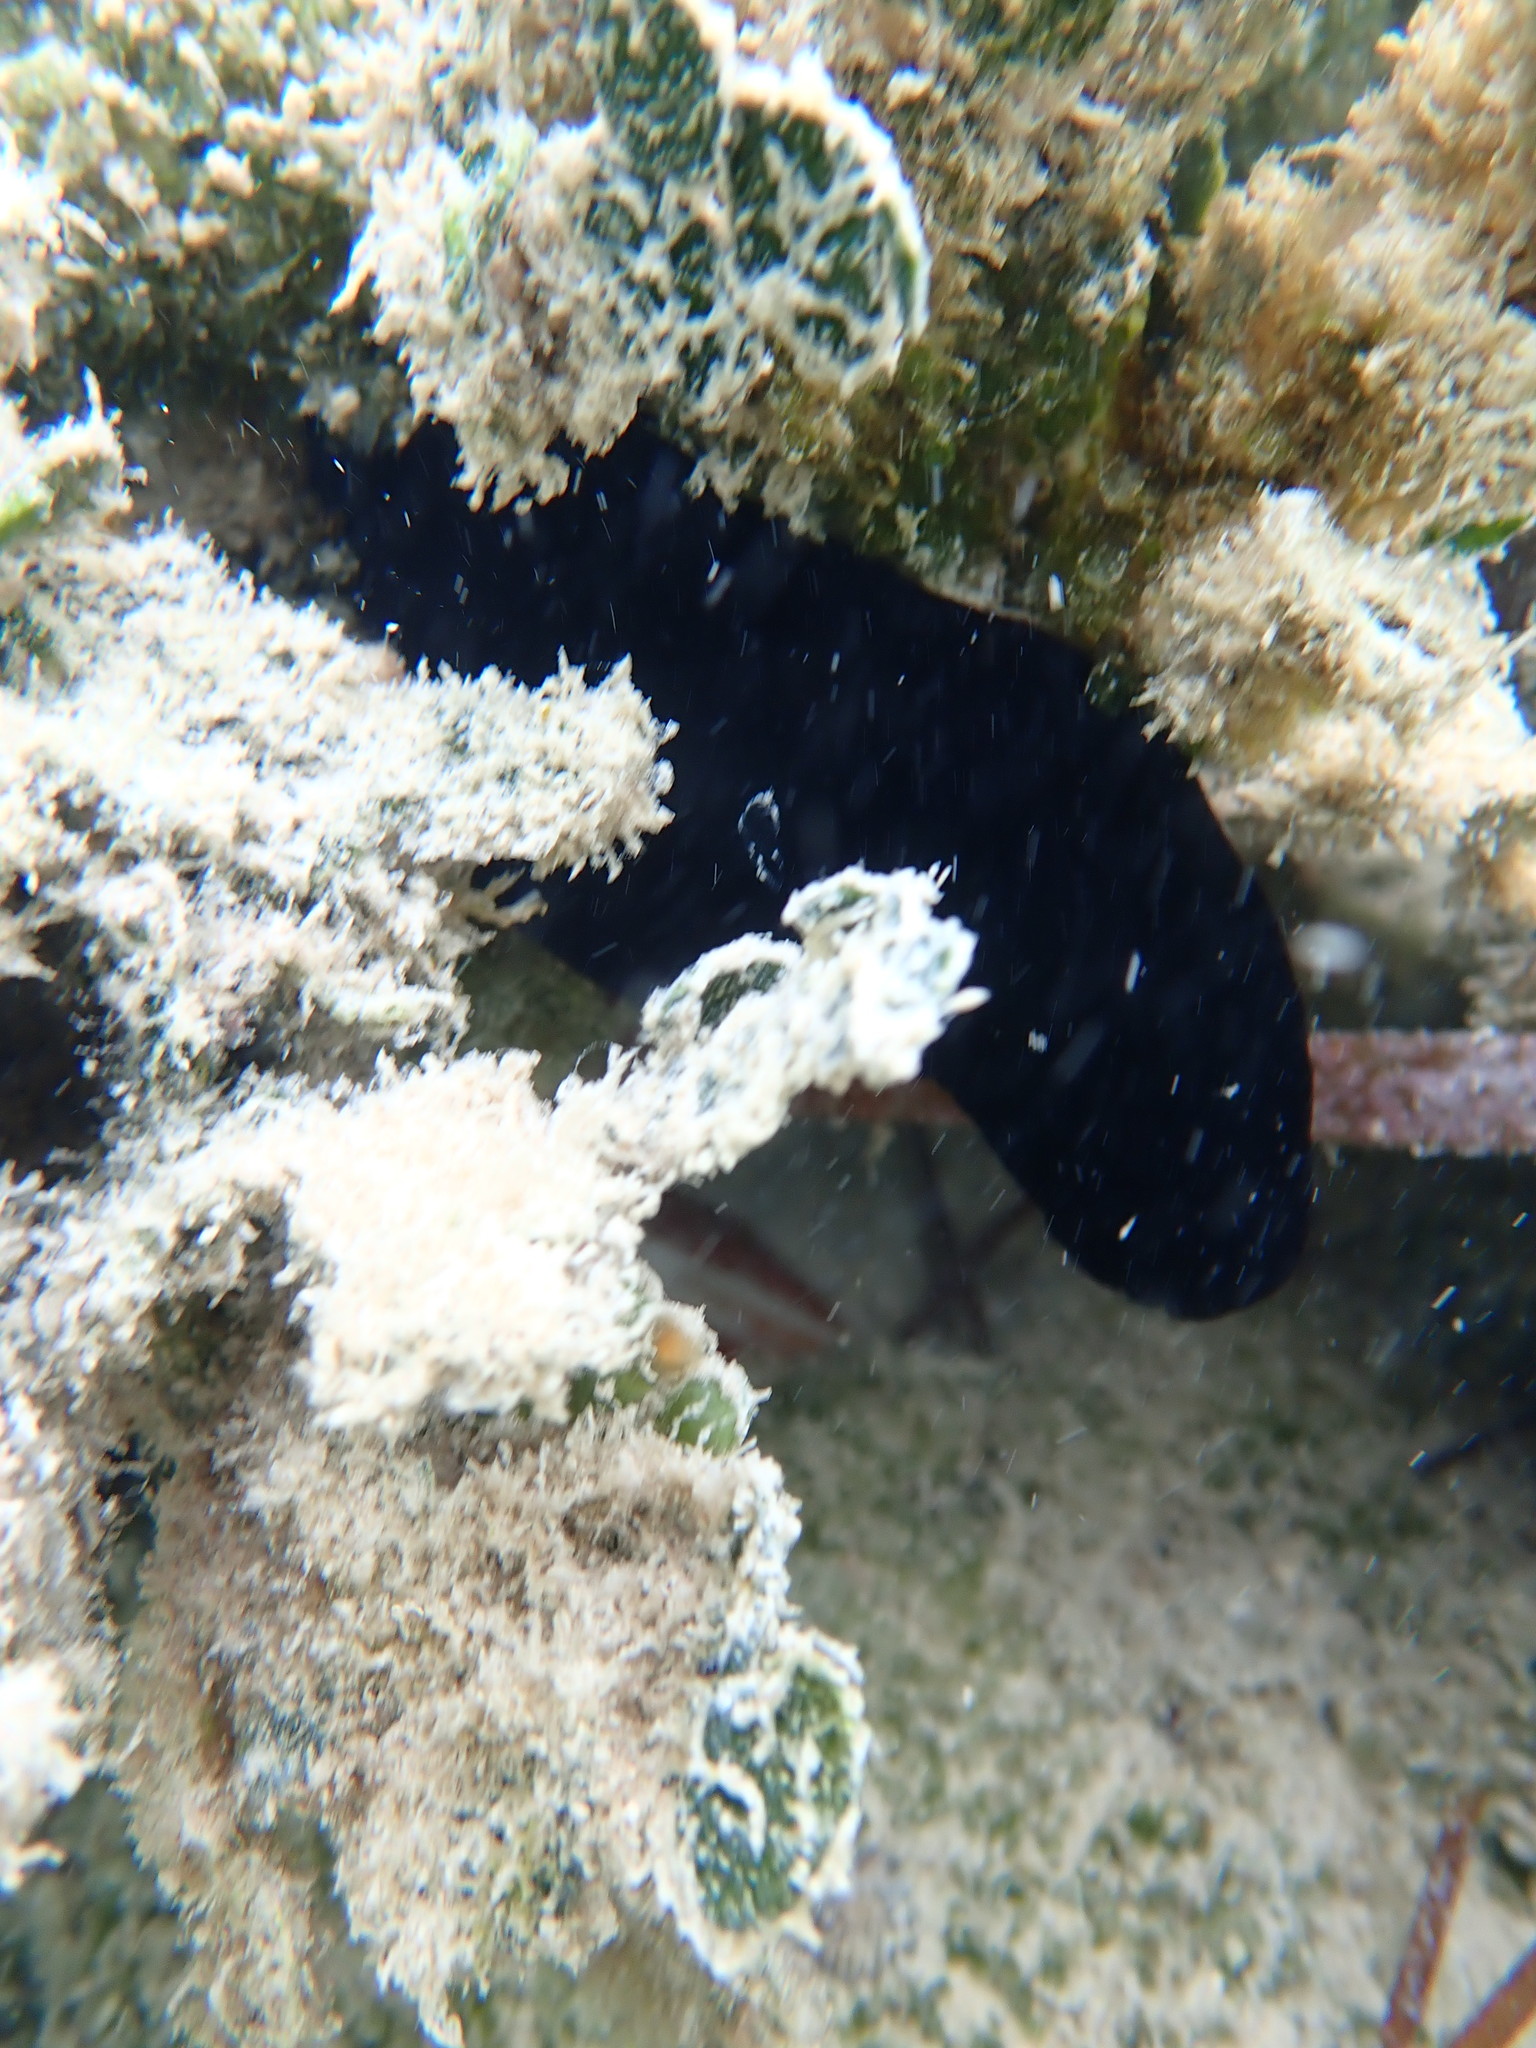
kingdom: Animalia
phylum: Chordata
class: Ascidiacea
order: Phlebobranchia
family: Ascidiidae
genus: Phallusia
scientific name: Phallusia nigra
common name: Black tunicate
